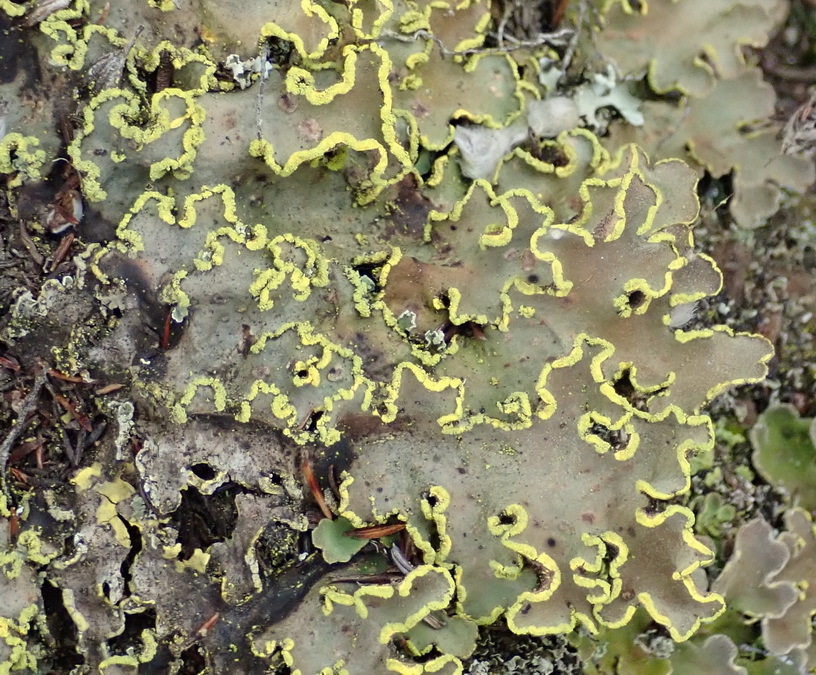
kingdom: Fungi
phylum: Ascomycota
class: Lecanoromycetes
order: Peltigerales
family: Lobariaceae
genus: Pseudocyphellaria
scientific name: Pseudocyphellaria aurata
